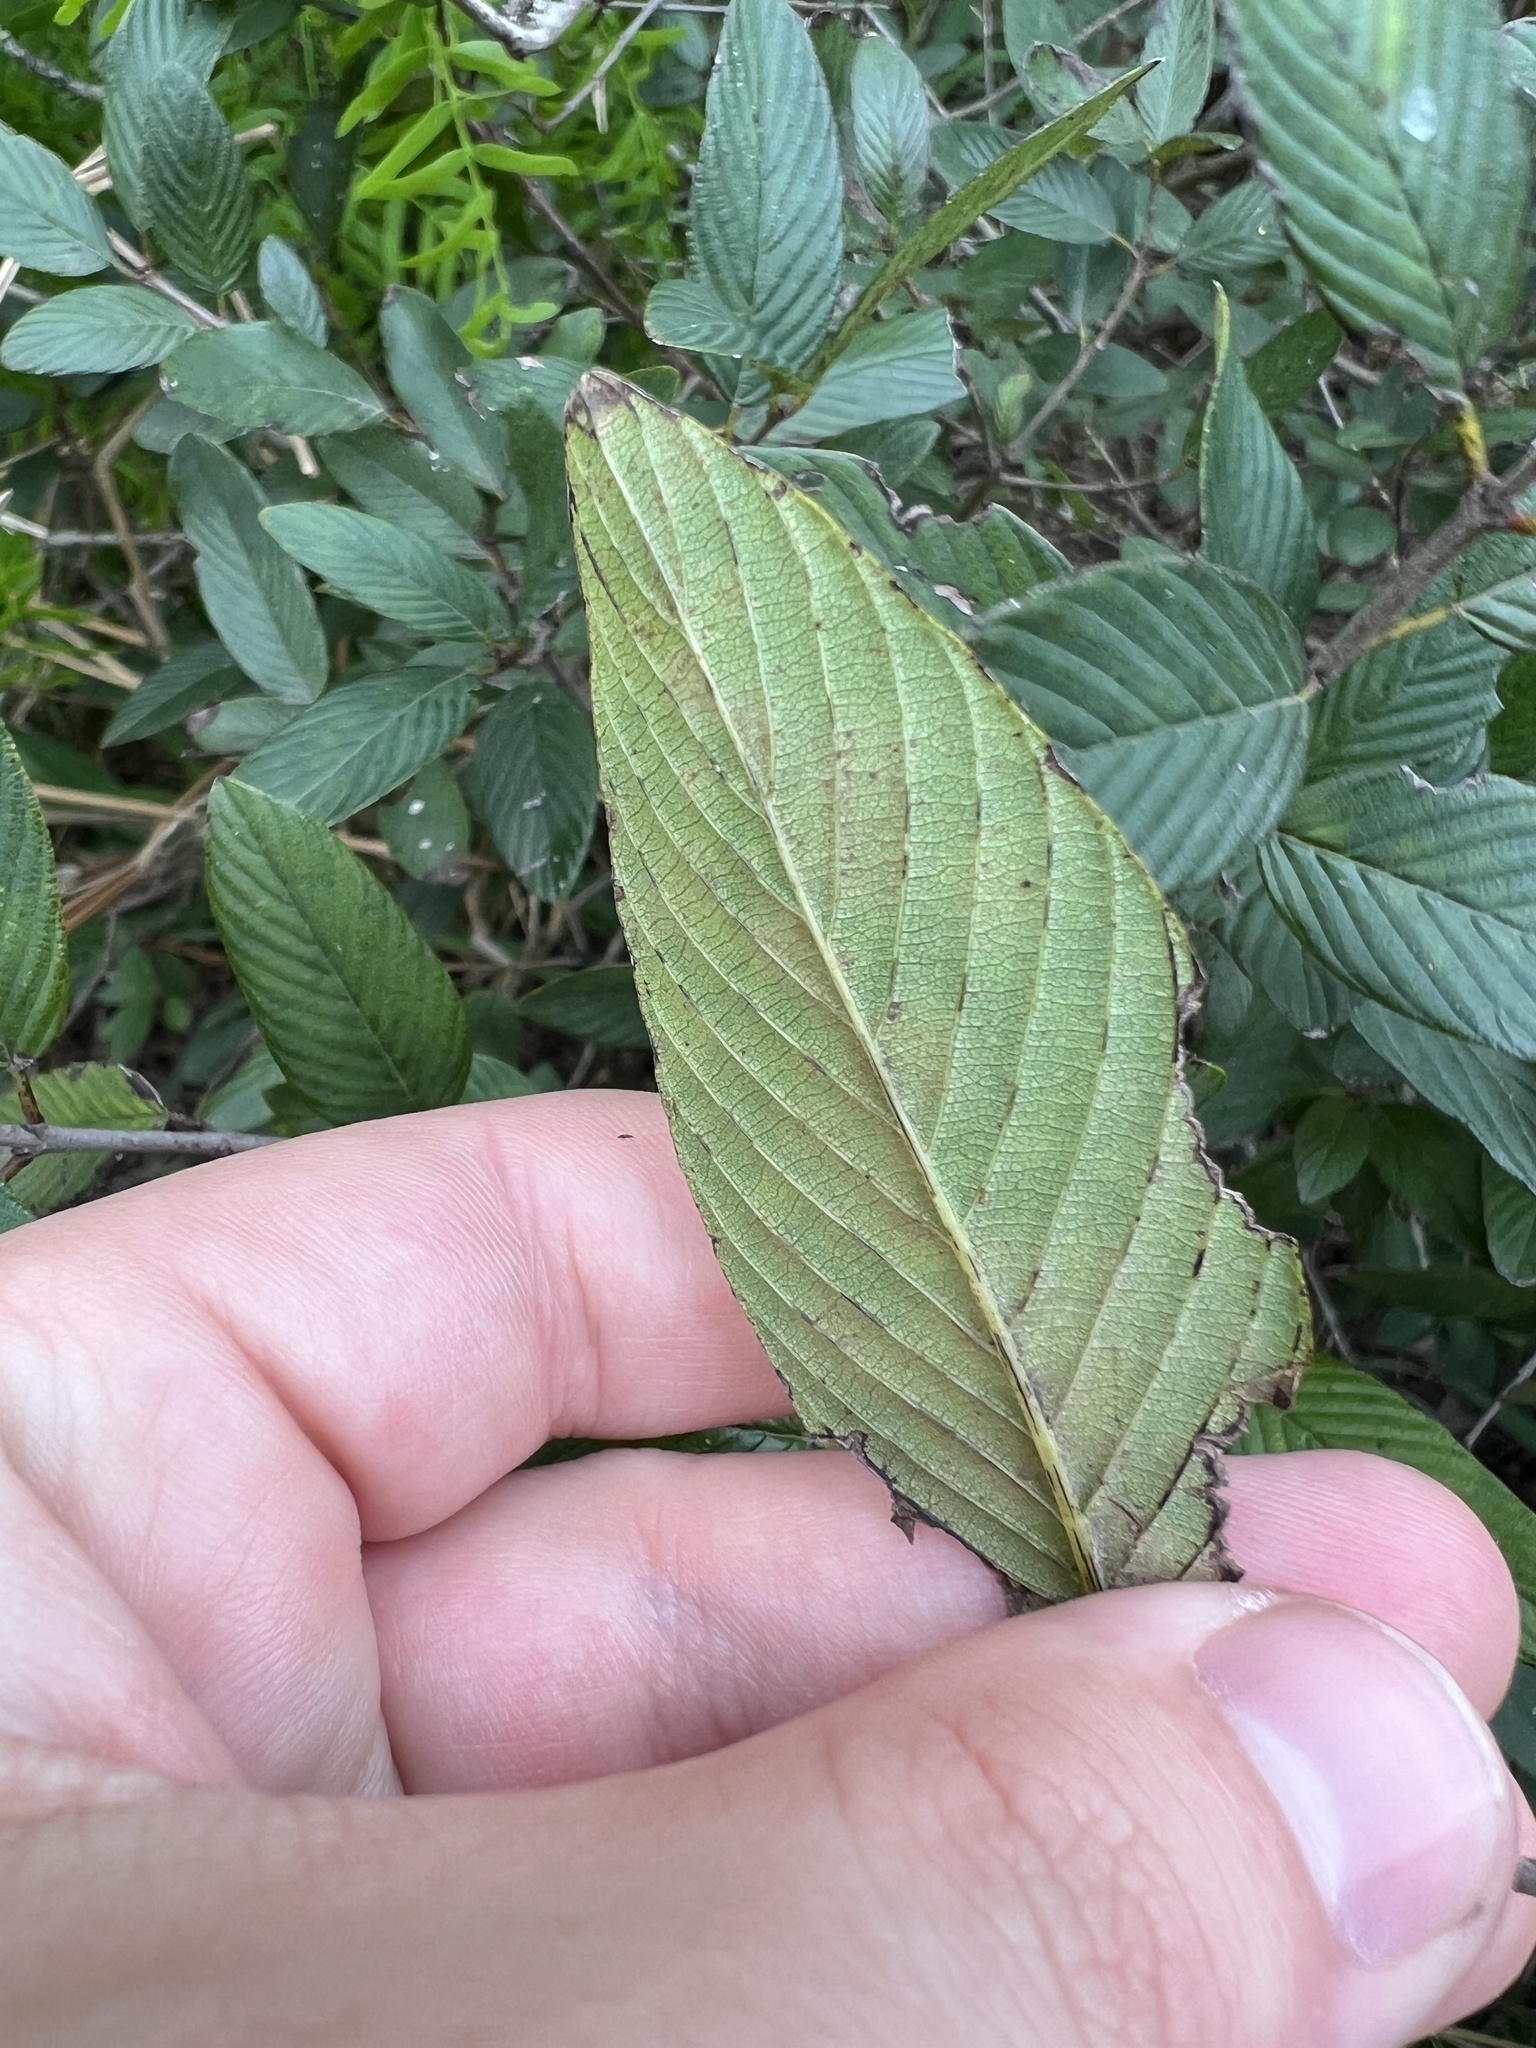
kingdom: Plantae
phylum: Tracheophyta
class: Magnoliopsida
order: Rosales
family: Rhamnaceae
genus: Karwinskia
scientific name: Karwinskia humboldtiana
